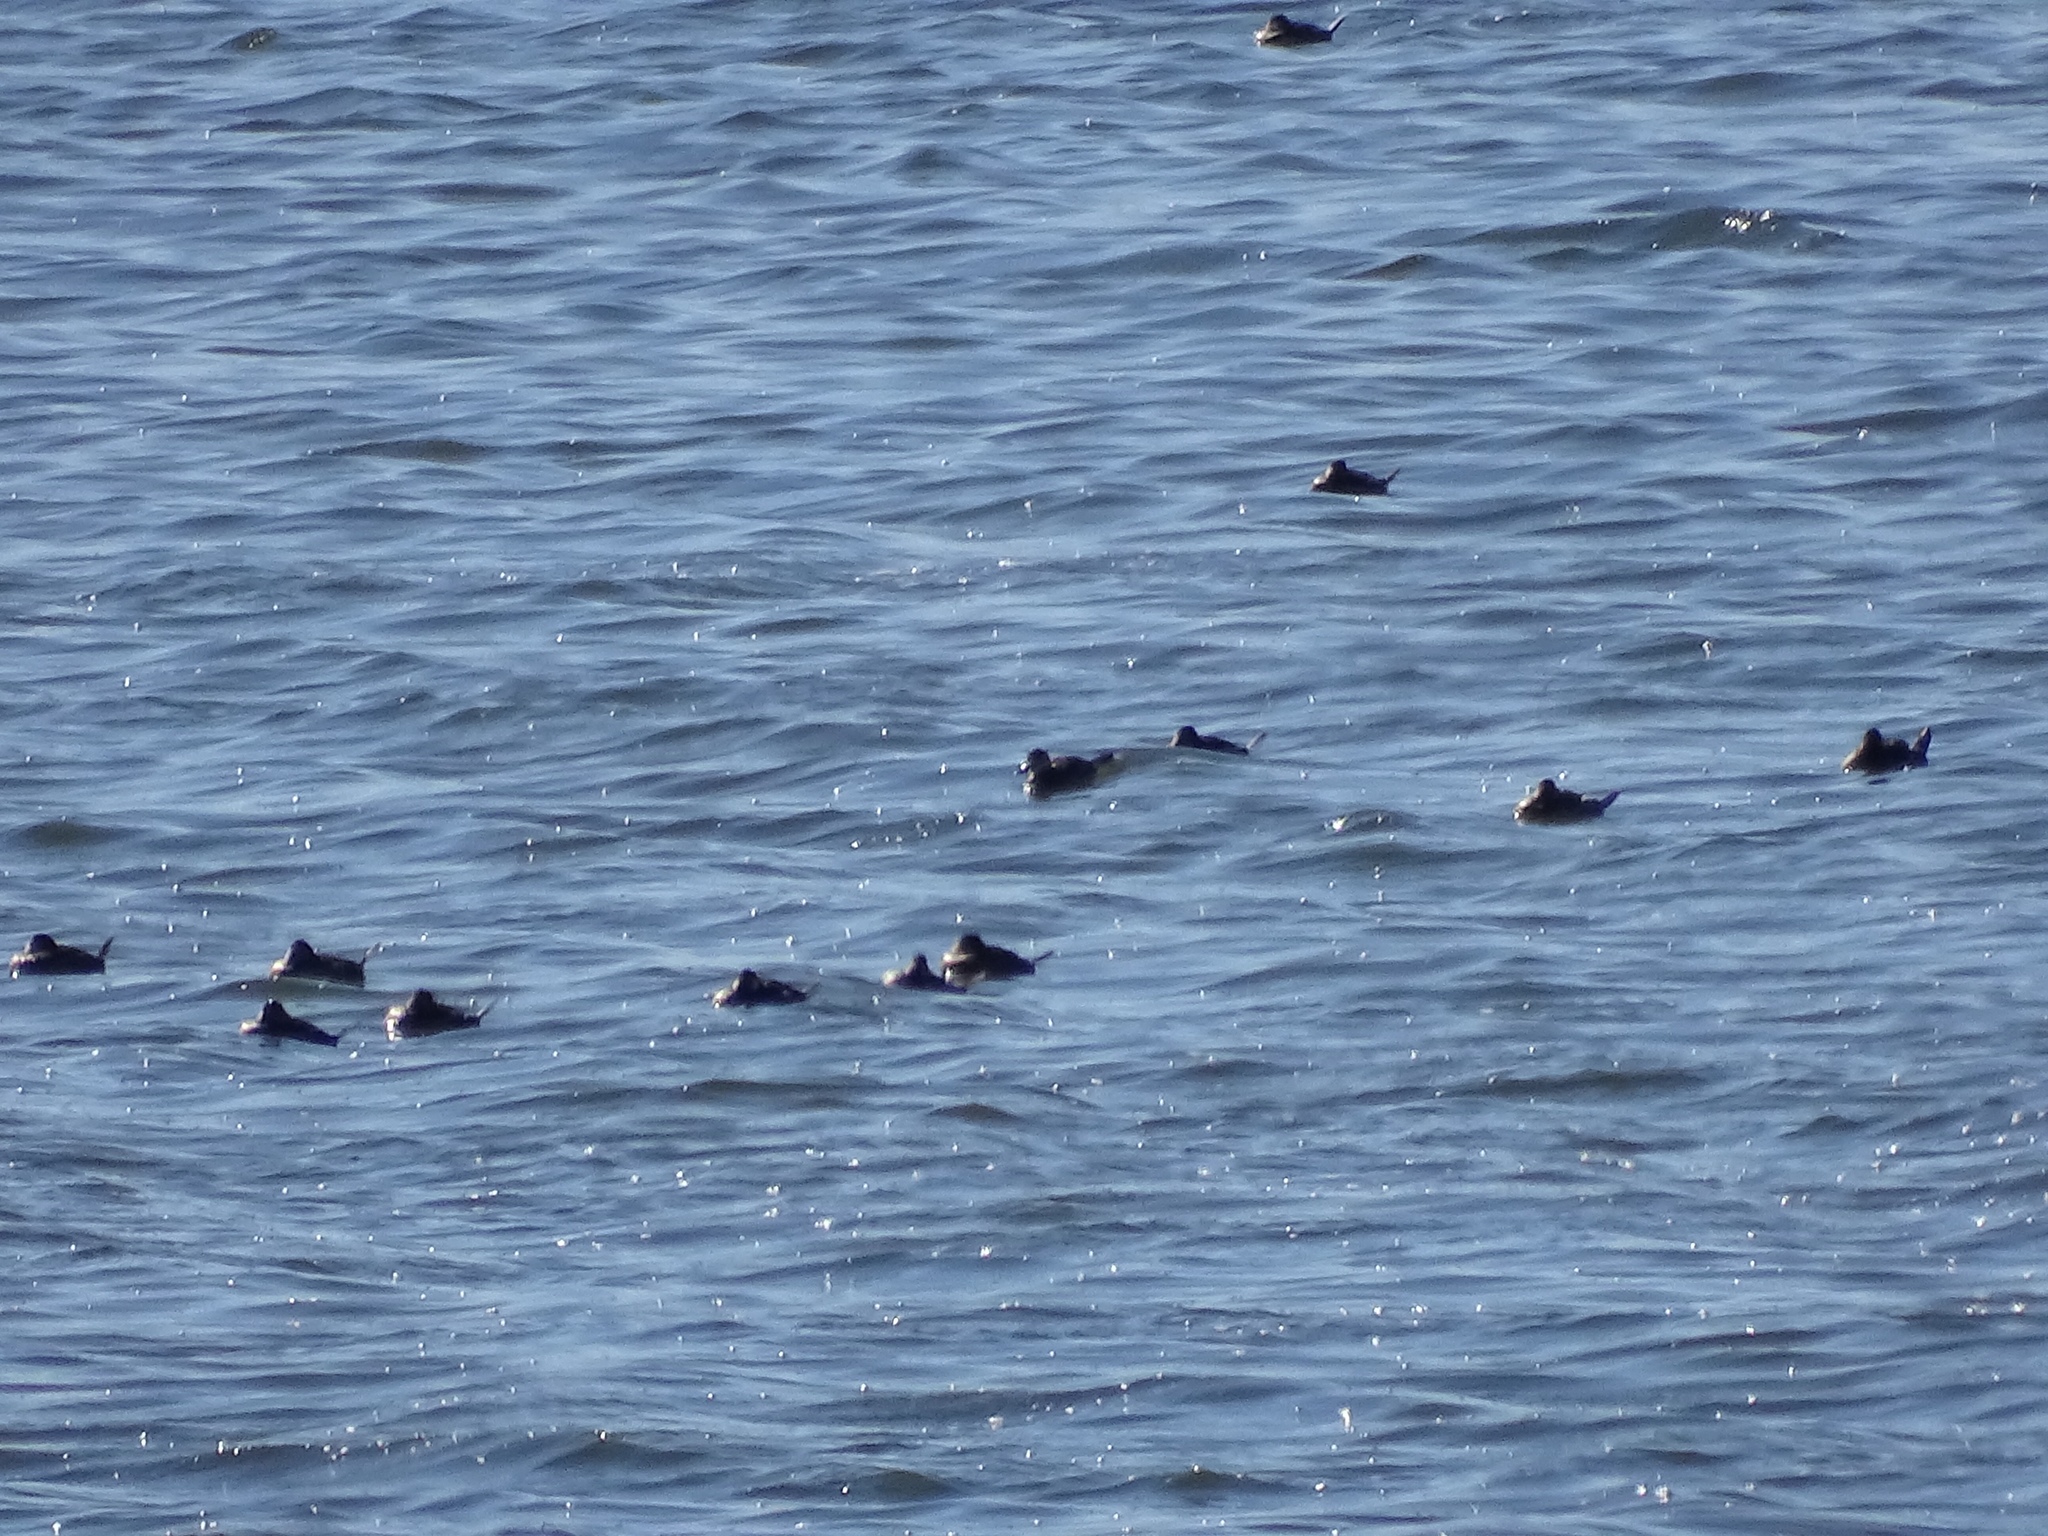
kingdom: Animalia
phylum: Chordata
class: Aves
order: Anseriformes
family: Anatidae
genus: Oxyura
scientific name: Oxyura jamaicensis
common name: Ruddy duck
